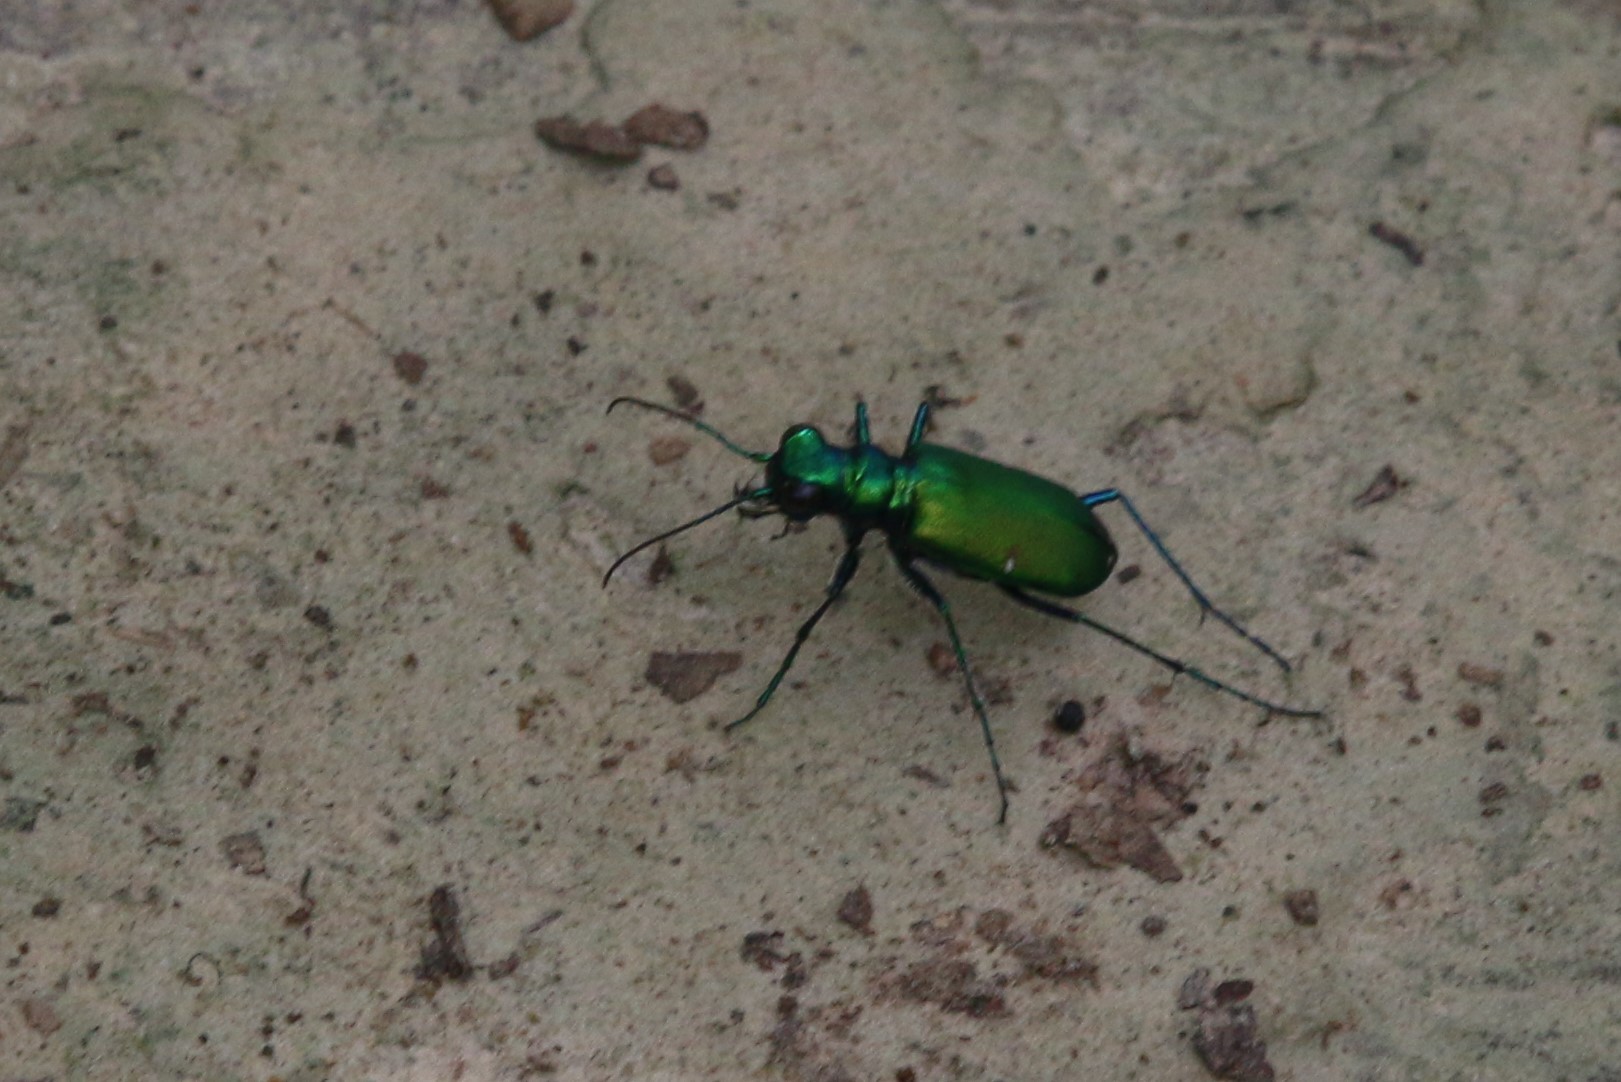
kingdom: Animalia
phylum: Arthropoda
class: Insecta
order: Coleoptera
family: Carabidae
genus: Cicindela
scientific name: Cicindela sexguttata
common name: Six-spotted tiger beetle
